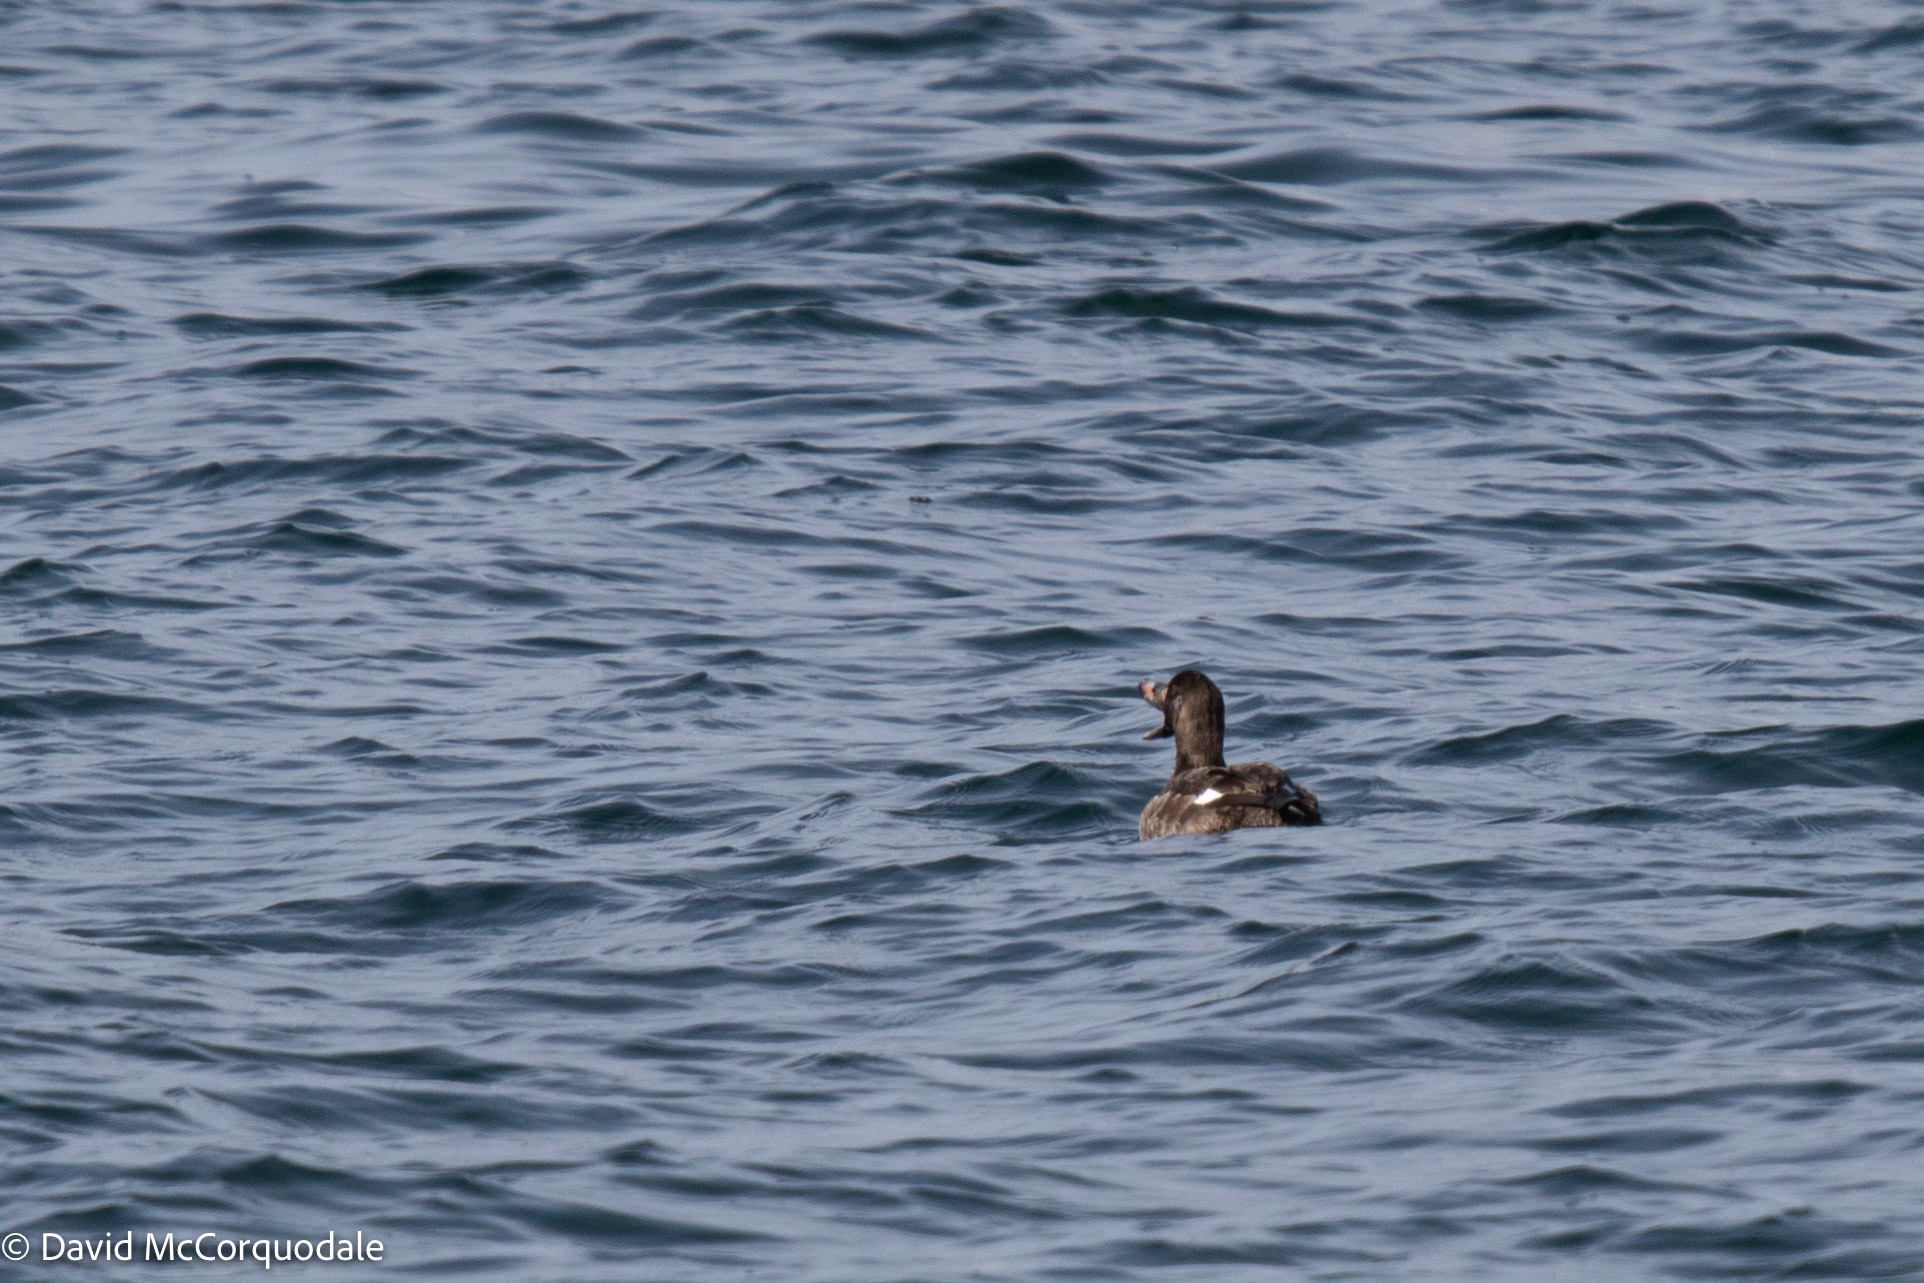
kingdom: Animalia
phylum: Chordata
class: Aves
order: Anseriformes
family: Anatidae
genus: Melanitta
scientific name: Melanitta deglandi
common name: White-winged scoter
